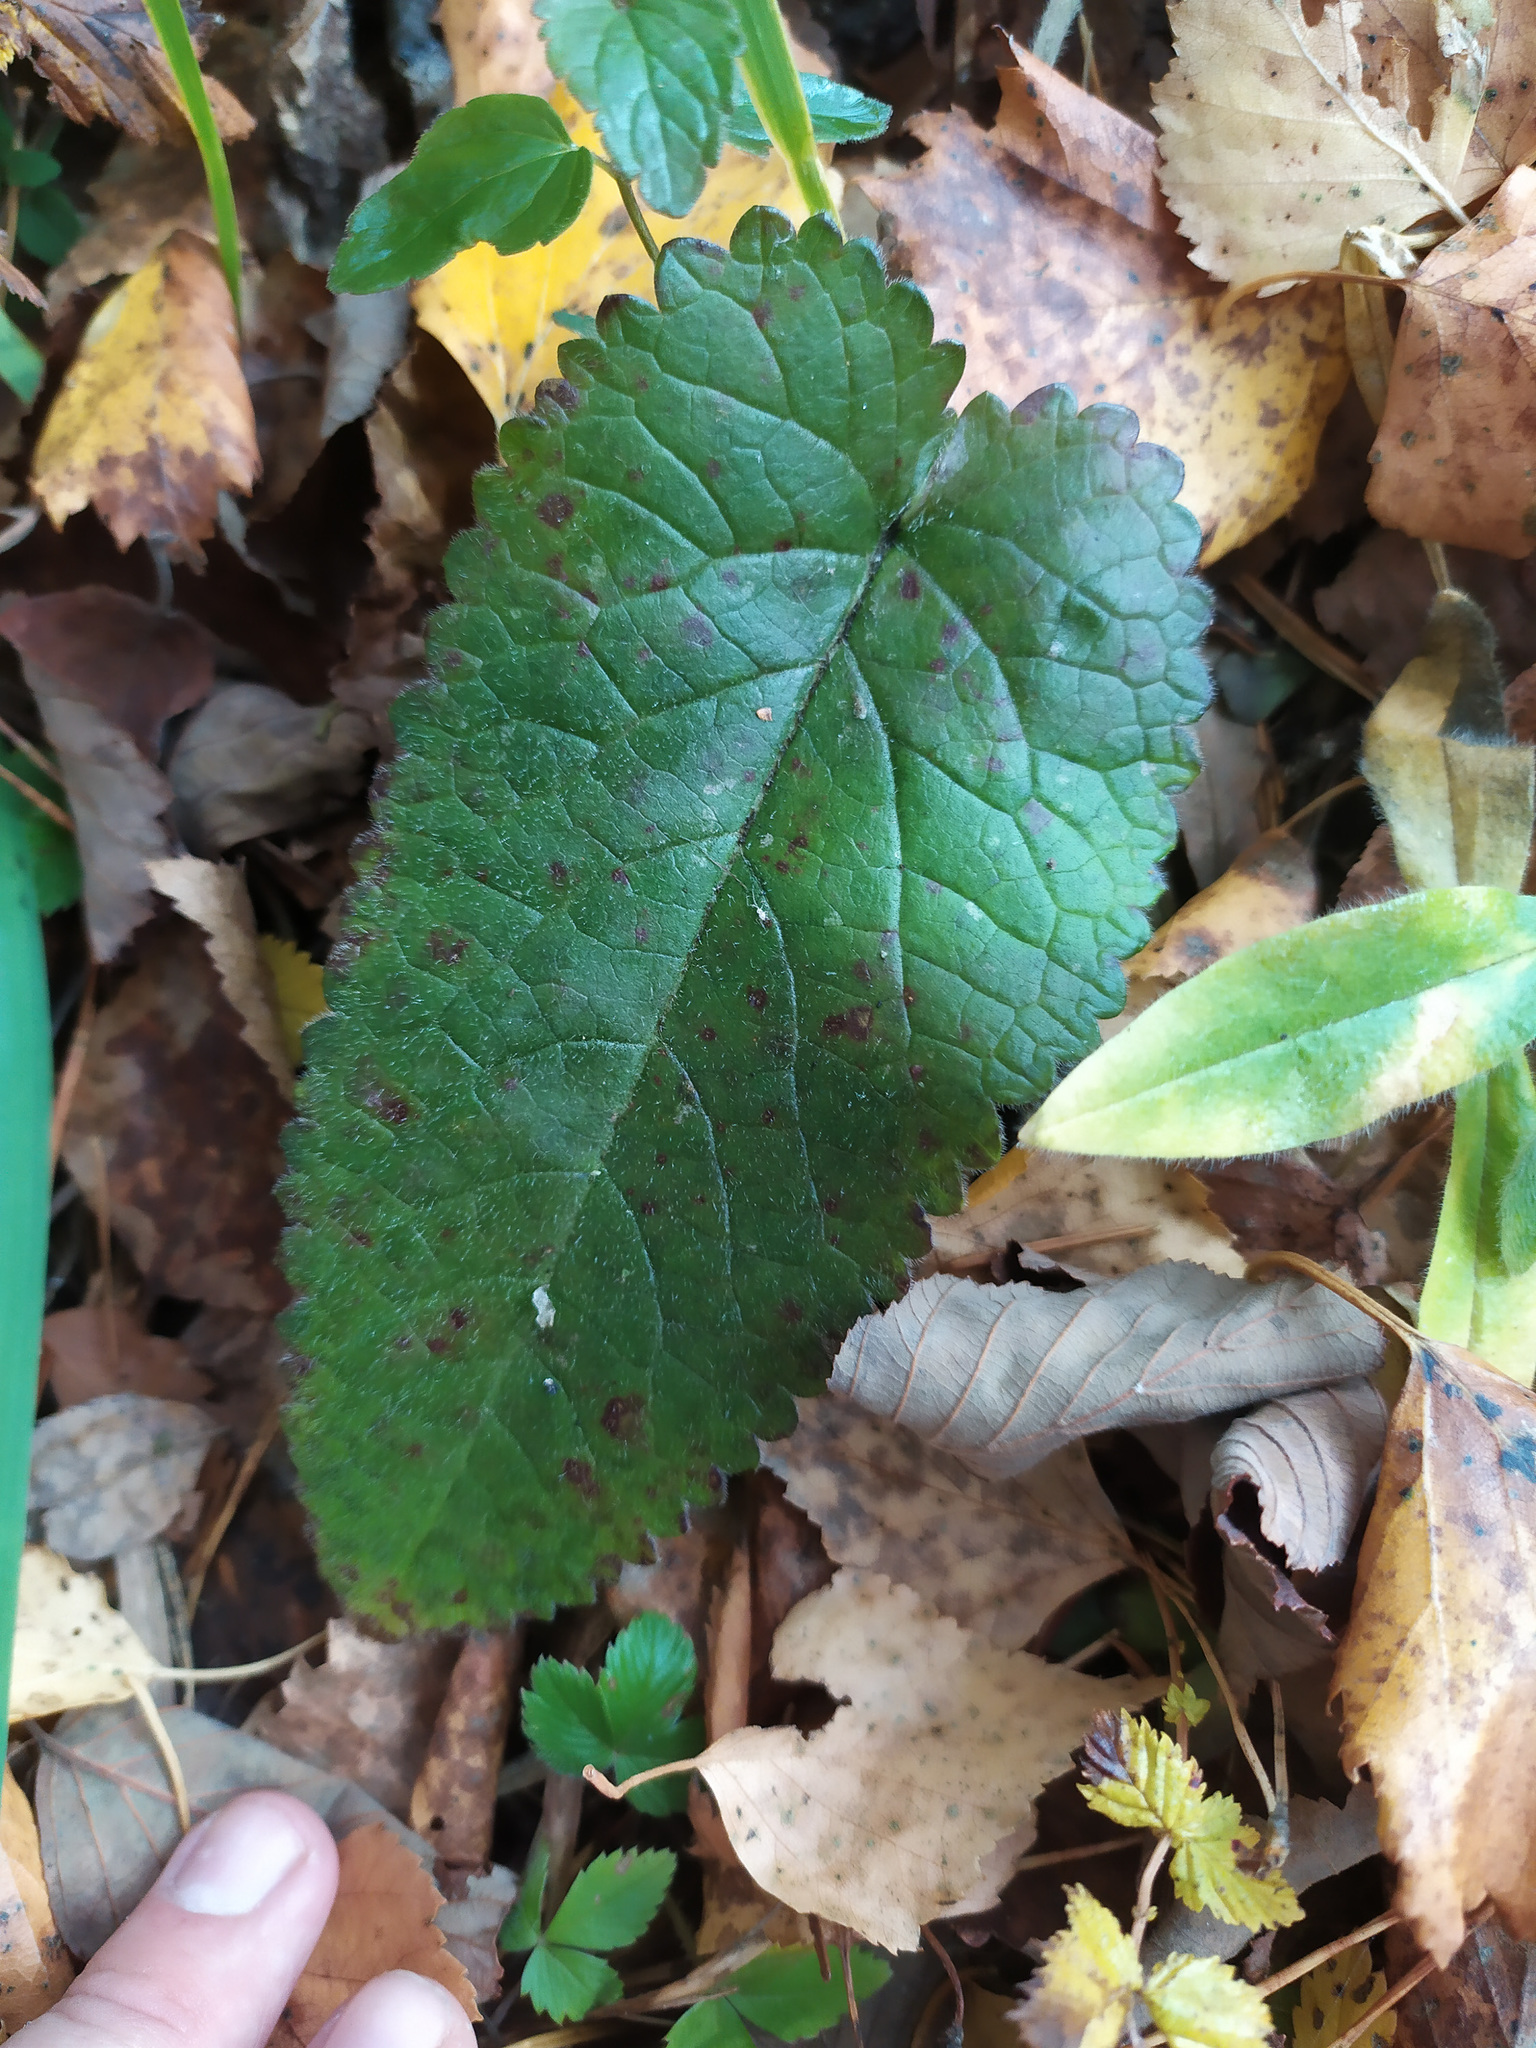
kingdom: Plantae
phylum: Tracheophyta
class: Magnoliopsida
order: Lamiales
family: Lamiaceae
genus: Betonica
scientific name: Betonica officinalis
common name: Bishop's-wort
